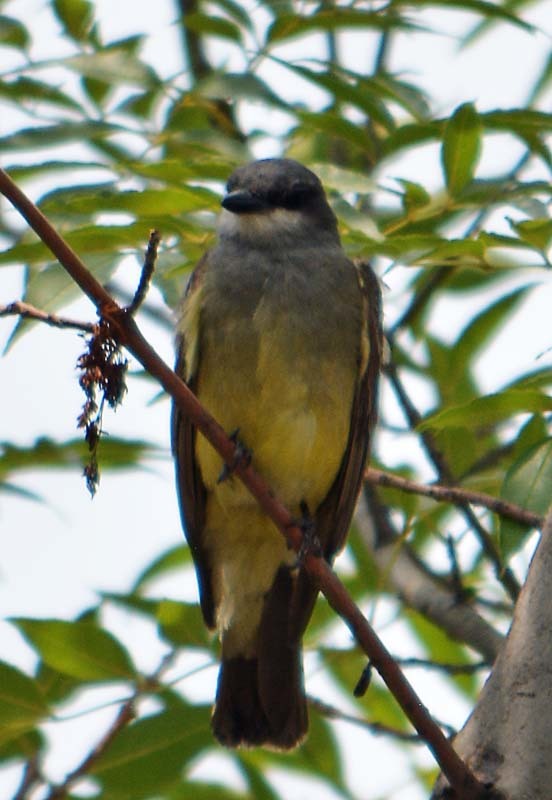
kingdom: Animalia
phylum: Chordata
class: Aves
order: Passeriformes
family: Tyrannidae
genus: Tyrannus
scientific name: Tyrannus vociferans
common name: Cassin's kingbird
